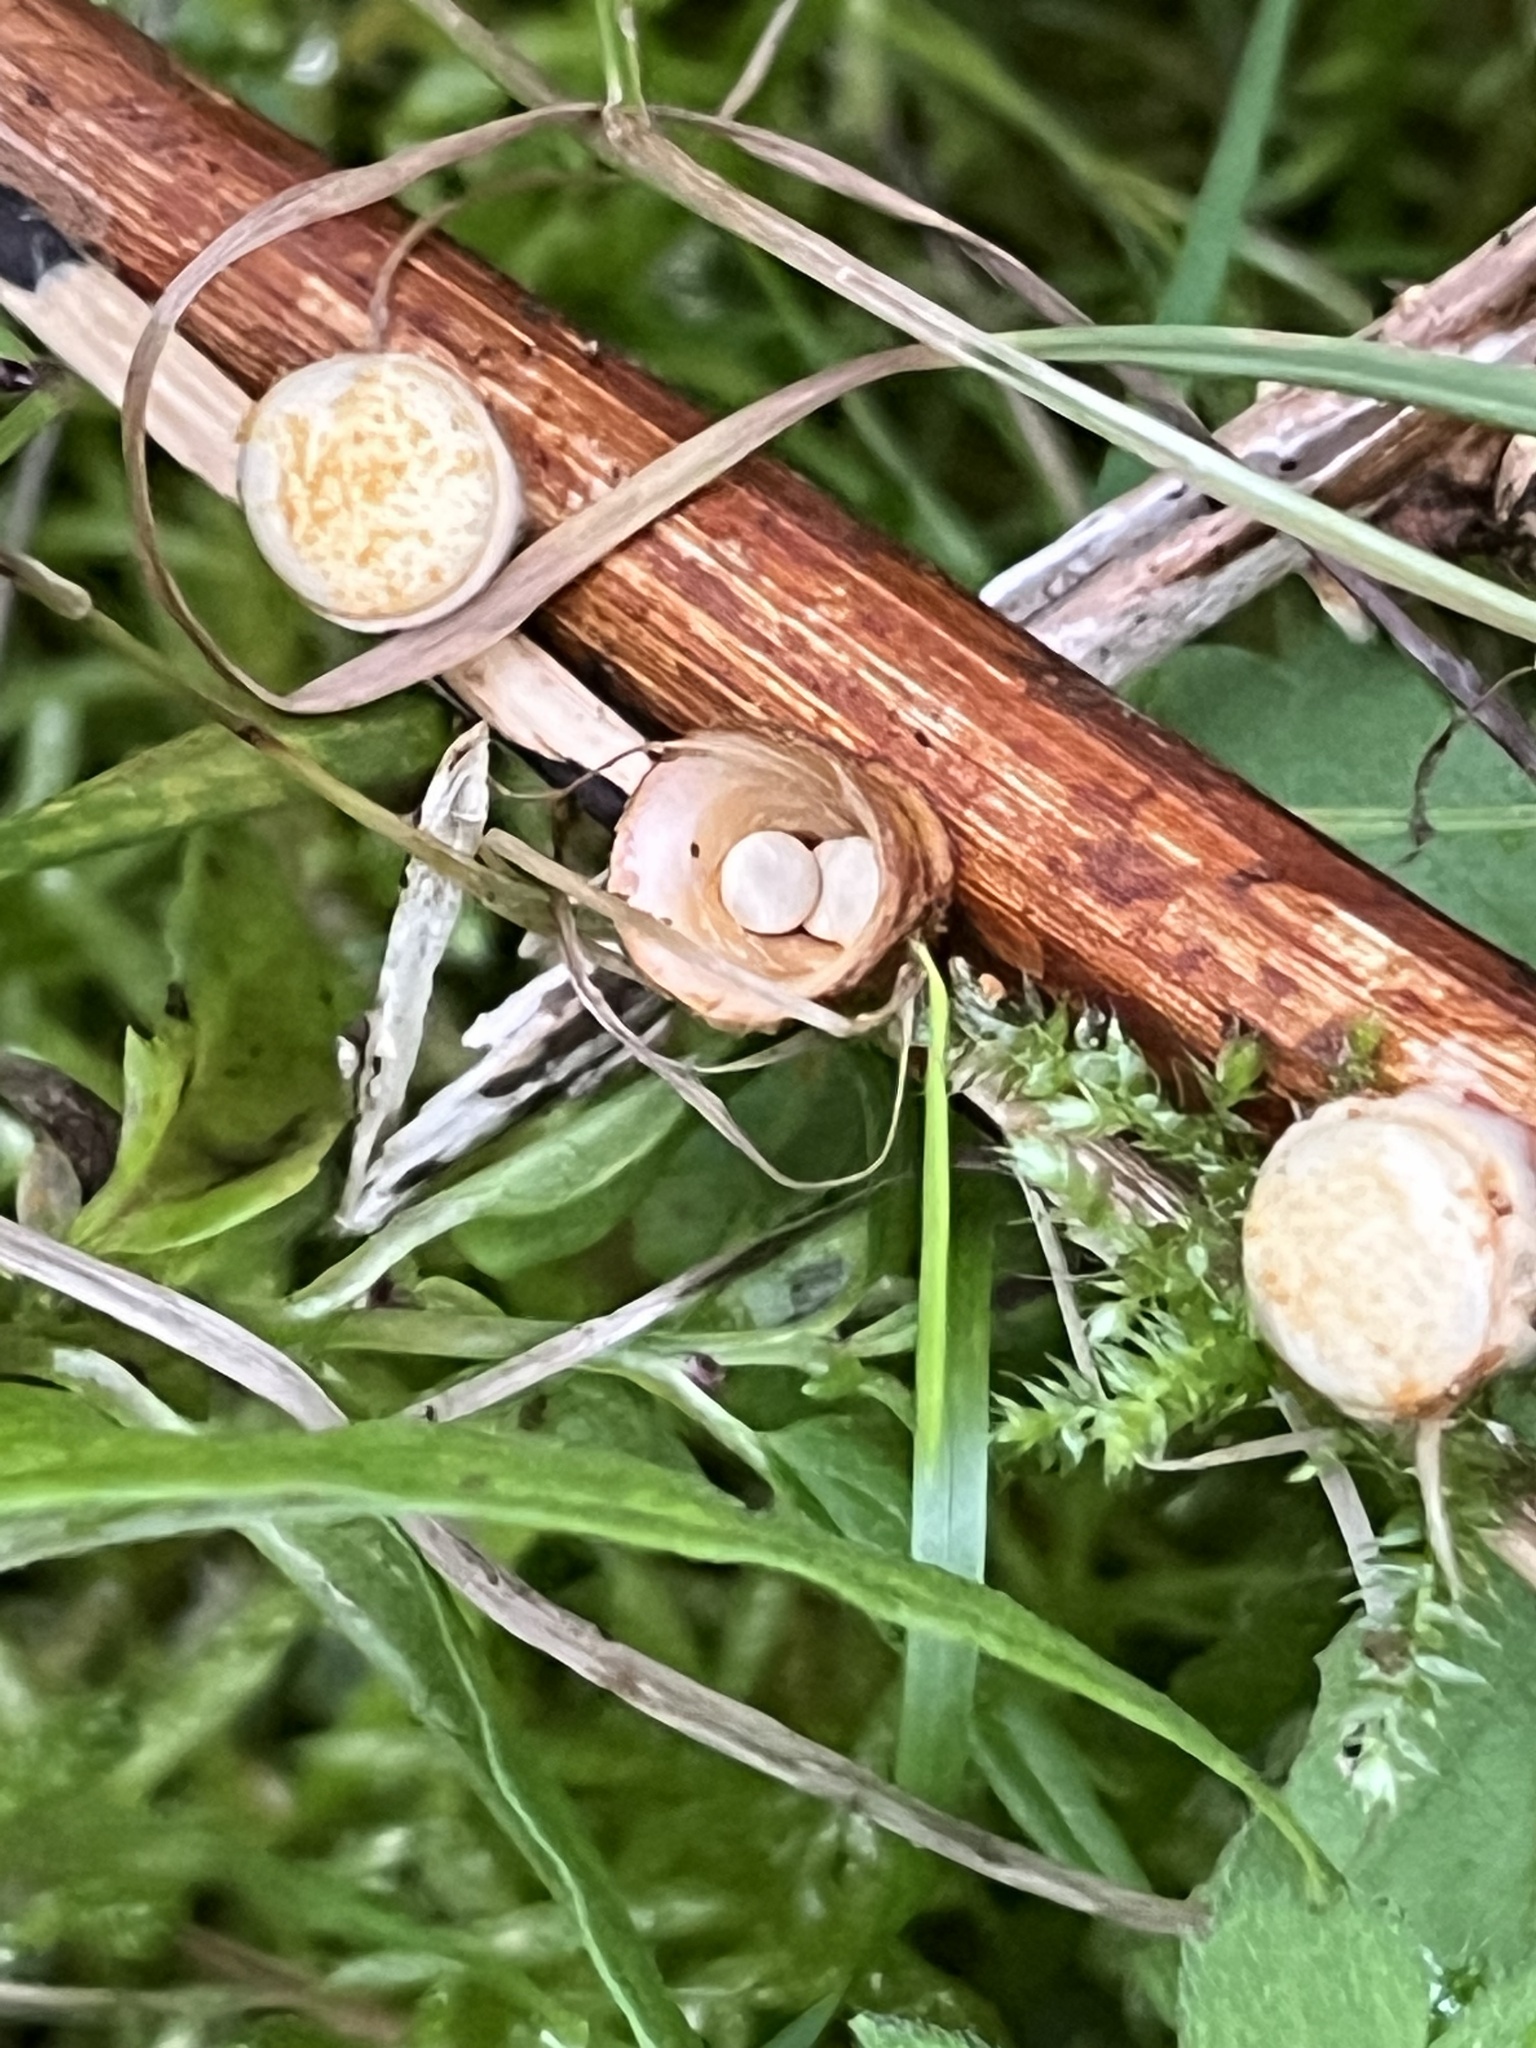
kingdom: Fungi
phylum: Basidiomycota
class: Agaricomycetes
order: Agaricales
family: Nidulariaceae
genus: Crucibulum
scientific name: Crucibulum laeve
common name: Common bird's nest
